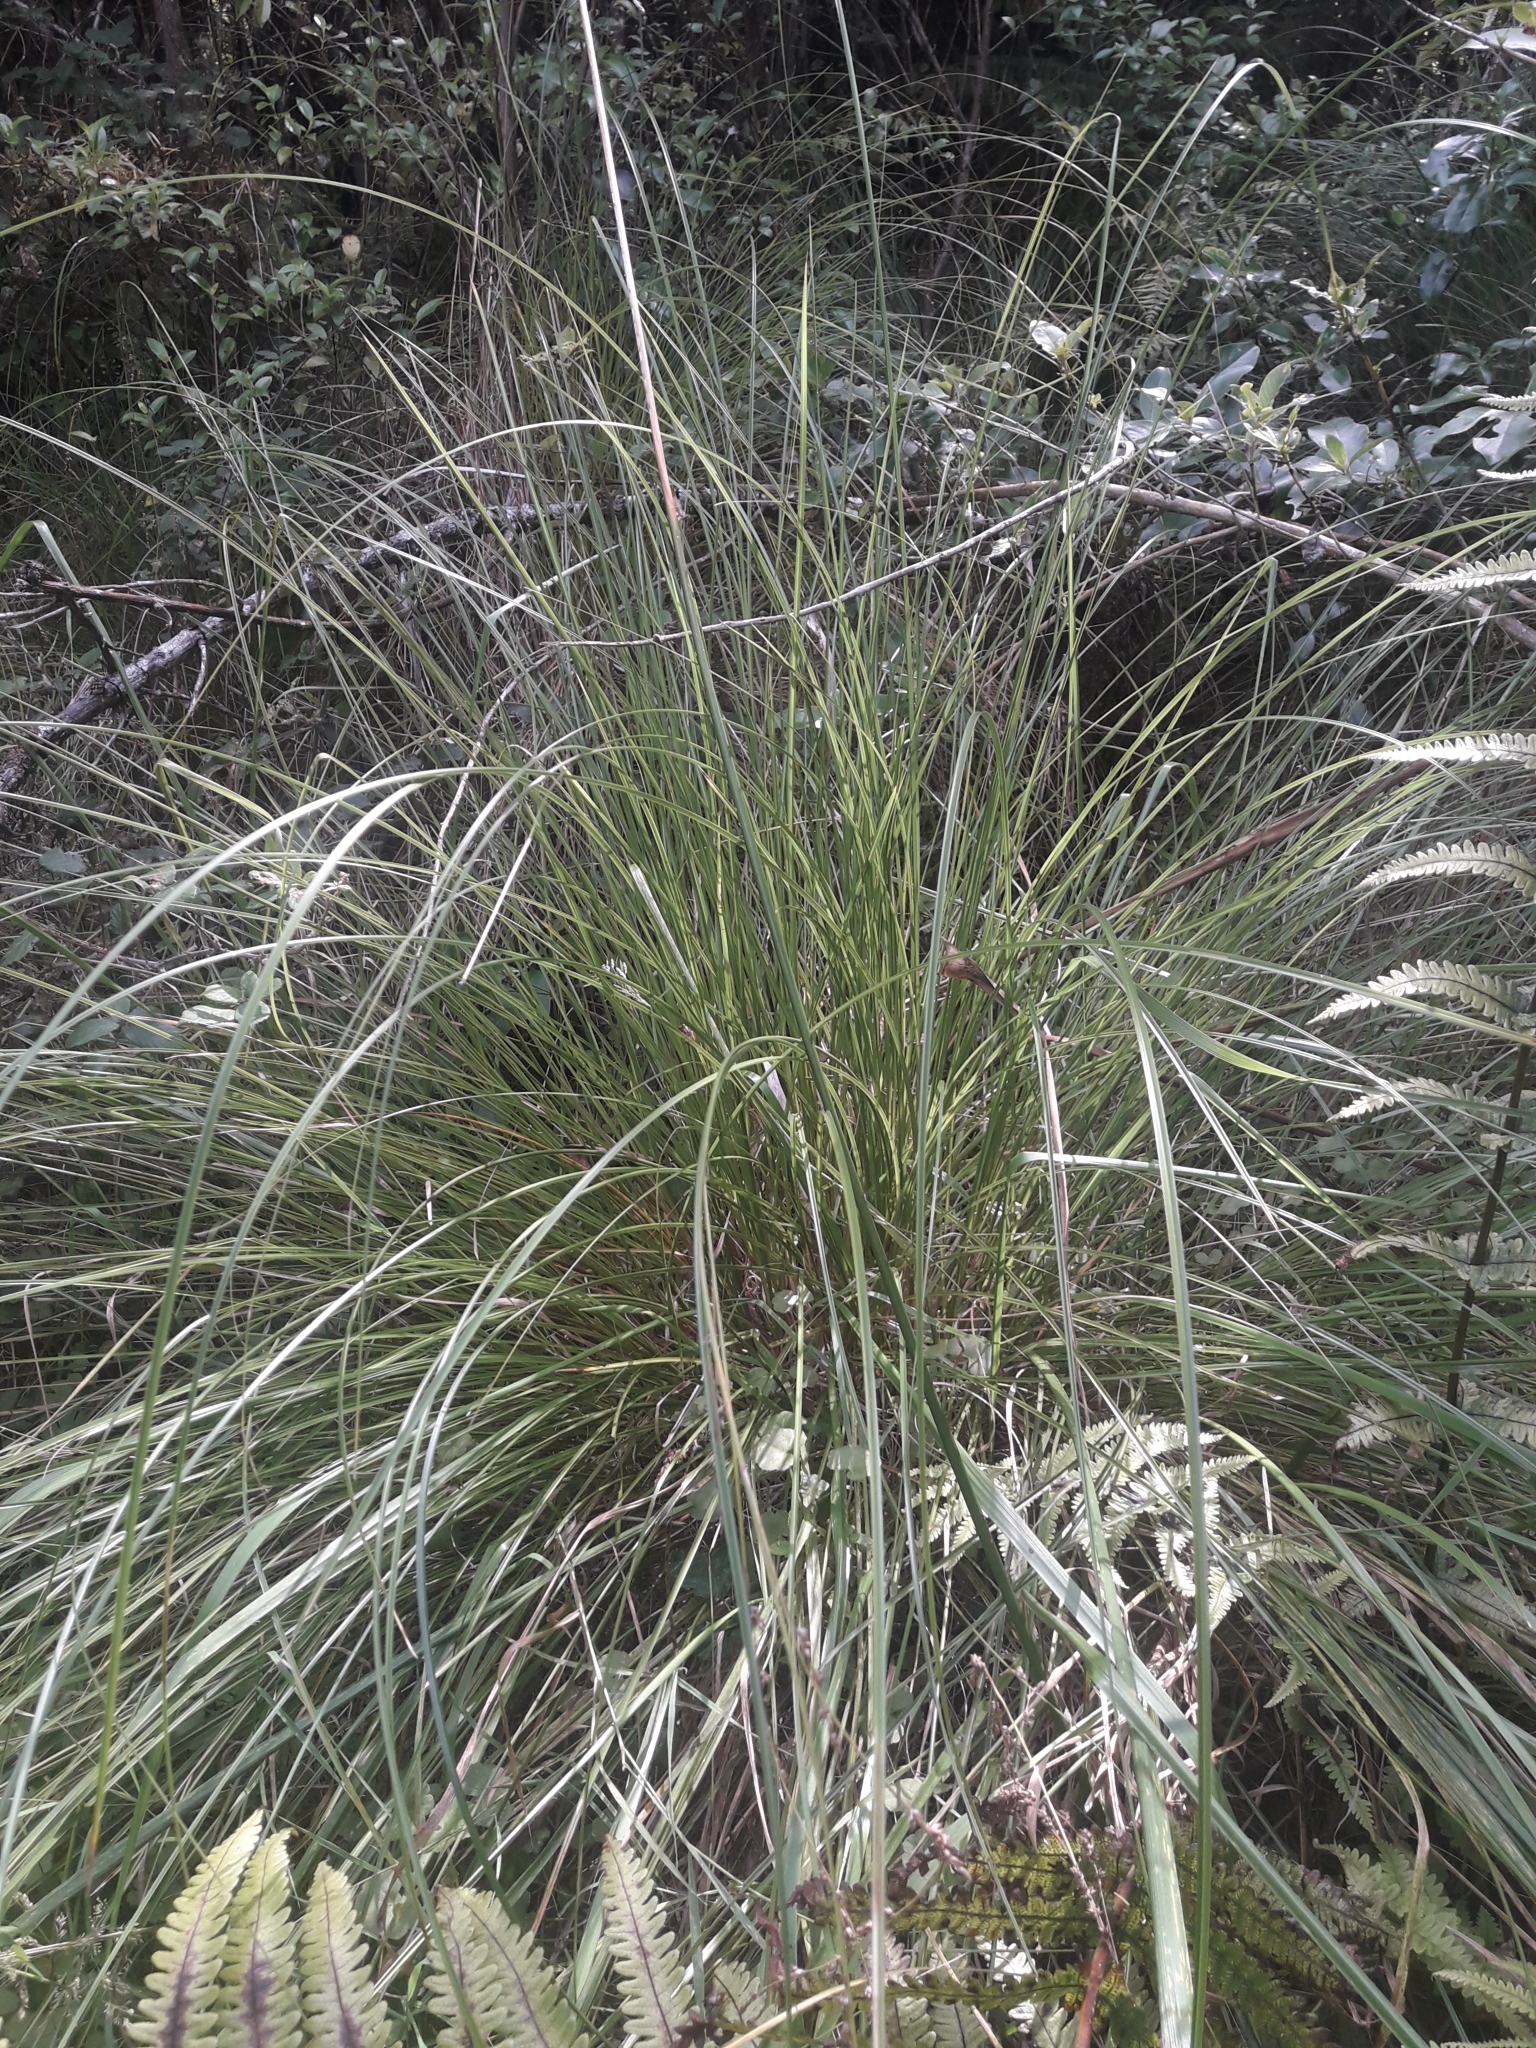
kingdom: Plantae
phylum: Tracheophyta
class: Liliopsida
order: Poales
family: Cyperaceae
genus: Carex
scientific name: Carex secta
